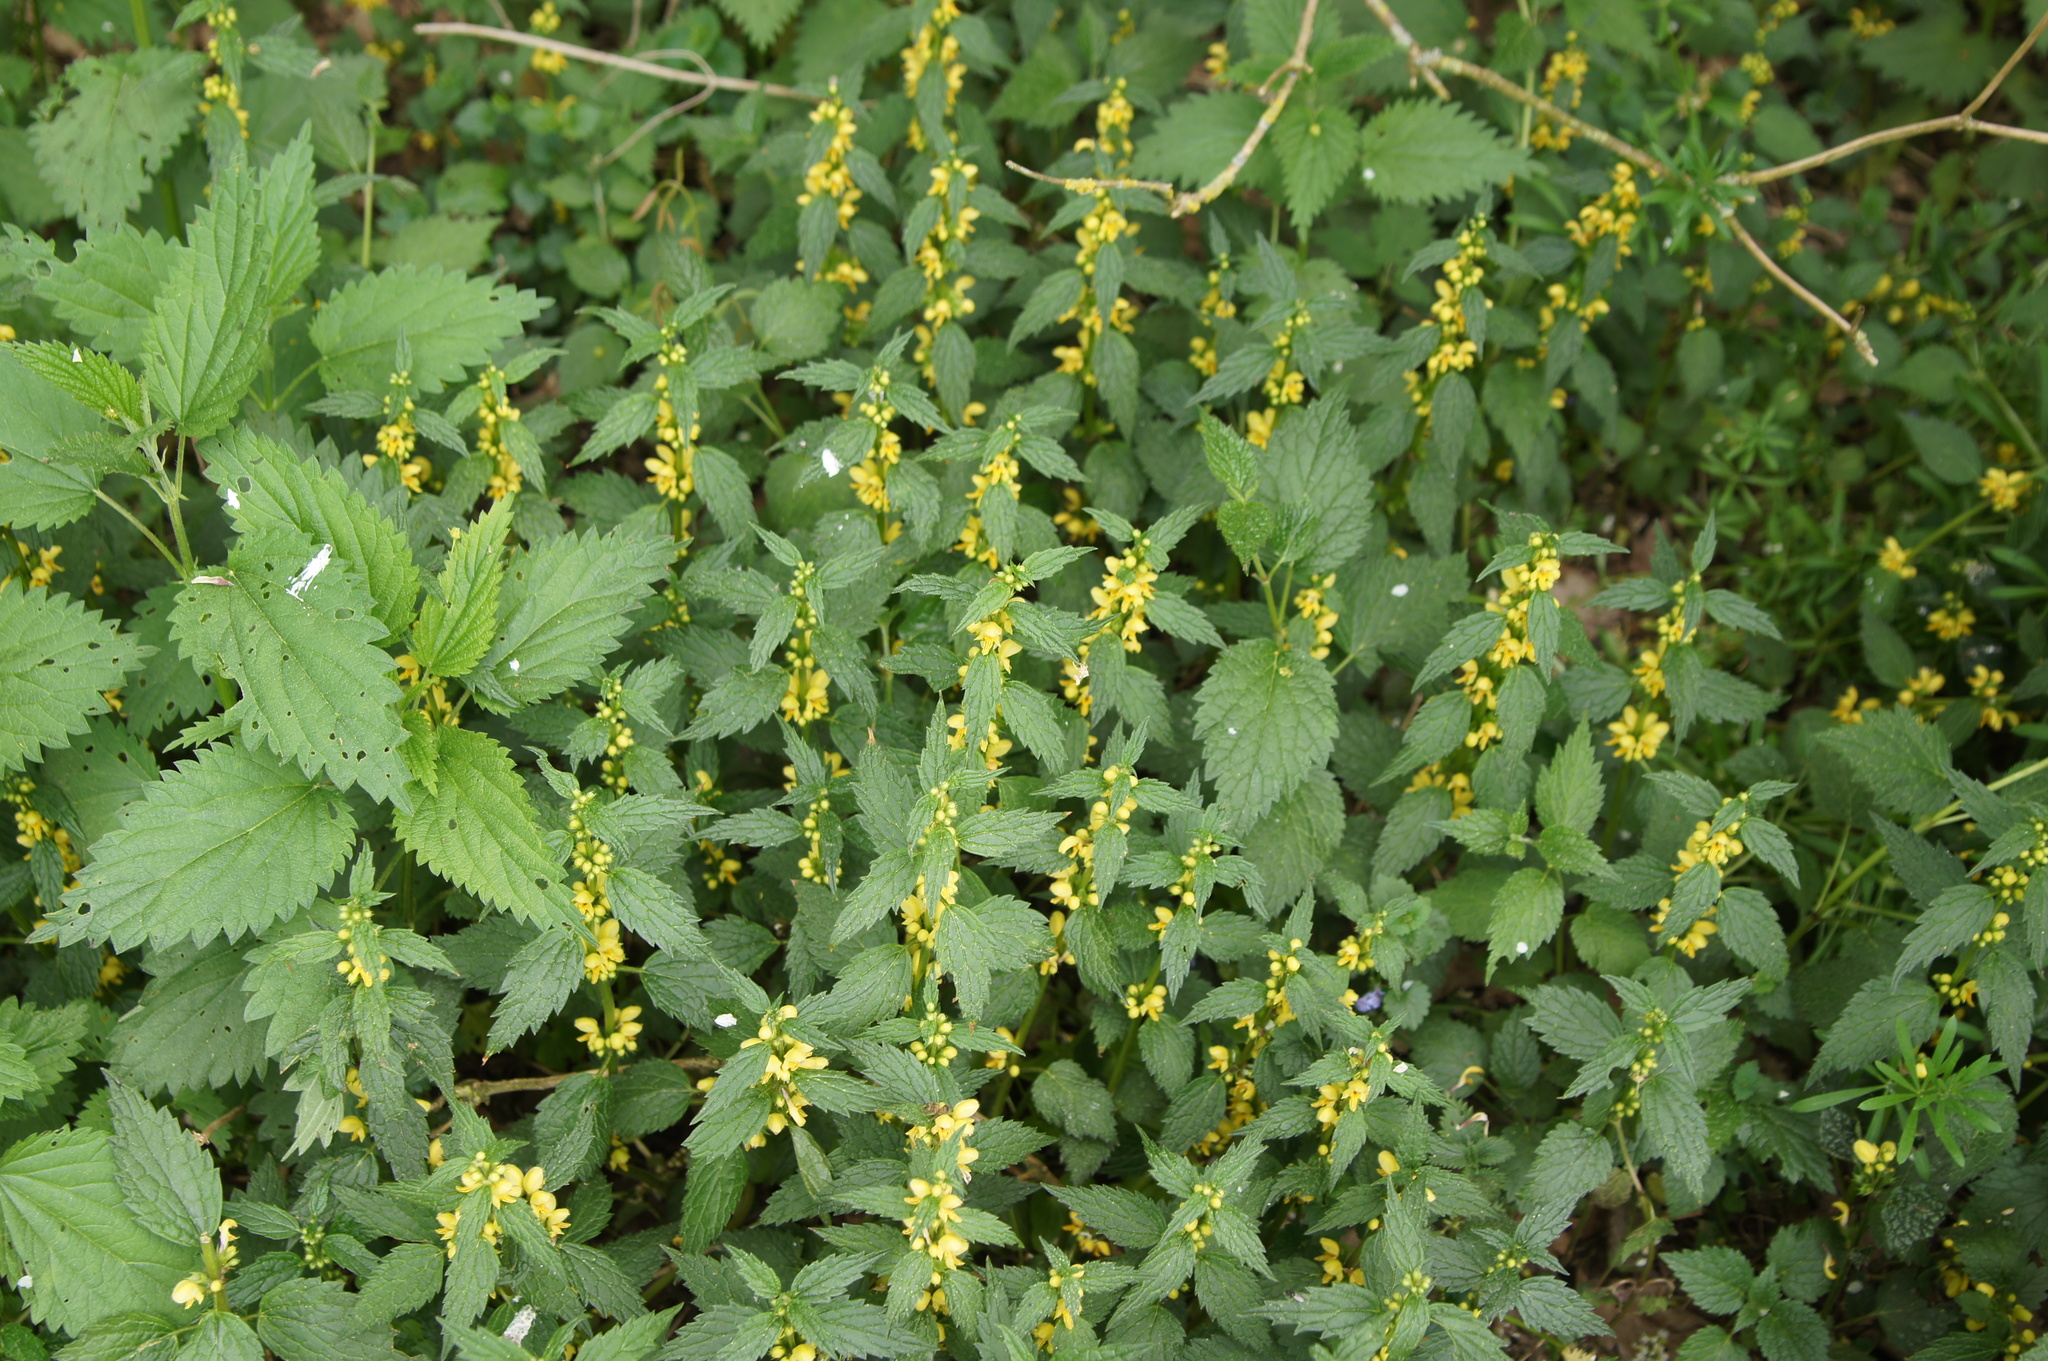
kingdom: Plantae
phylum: Tracheophyta
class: Magnoliopsida
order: Lamiales
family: Lamiaceae
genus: Lamium
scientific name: Lamium galeobdolon
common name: Yellow archangel
